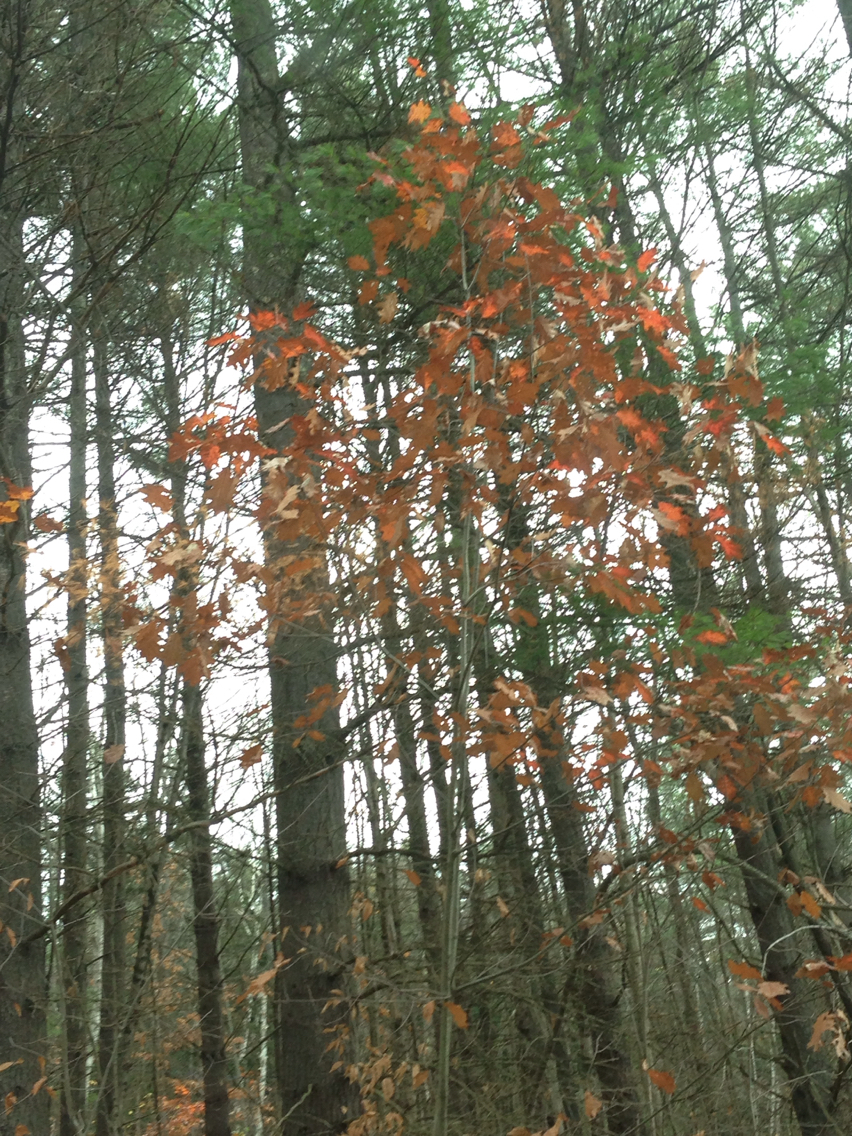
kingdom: Plantae
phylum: Tracheophyta
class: Magnoliopsida
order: Fagales
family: Fagaceae
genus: Quercus
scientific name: Quercus rubra
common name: Red oak
